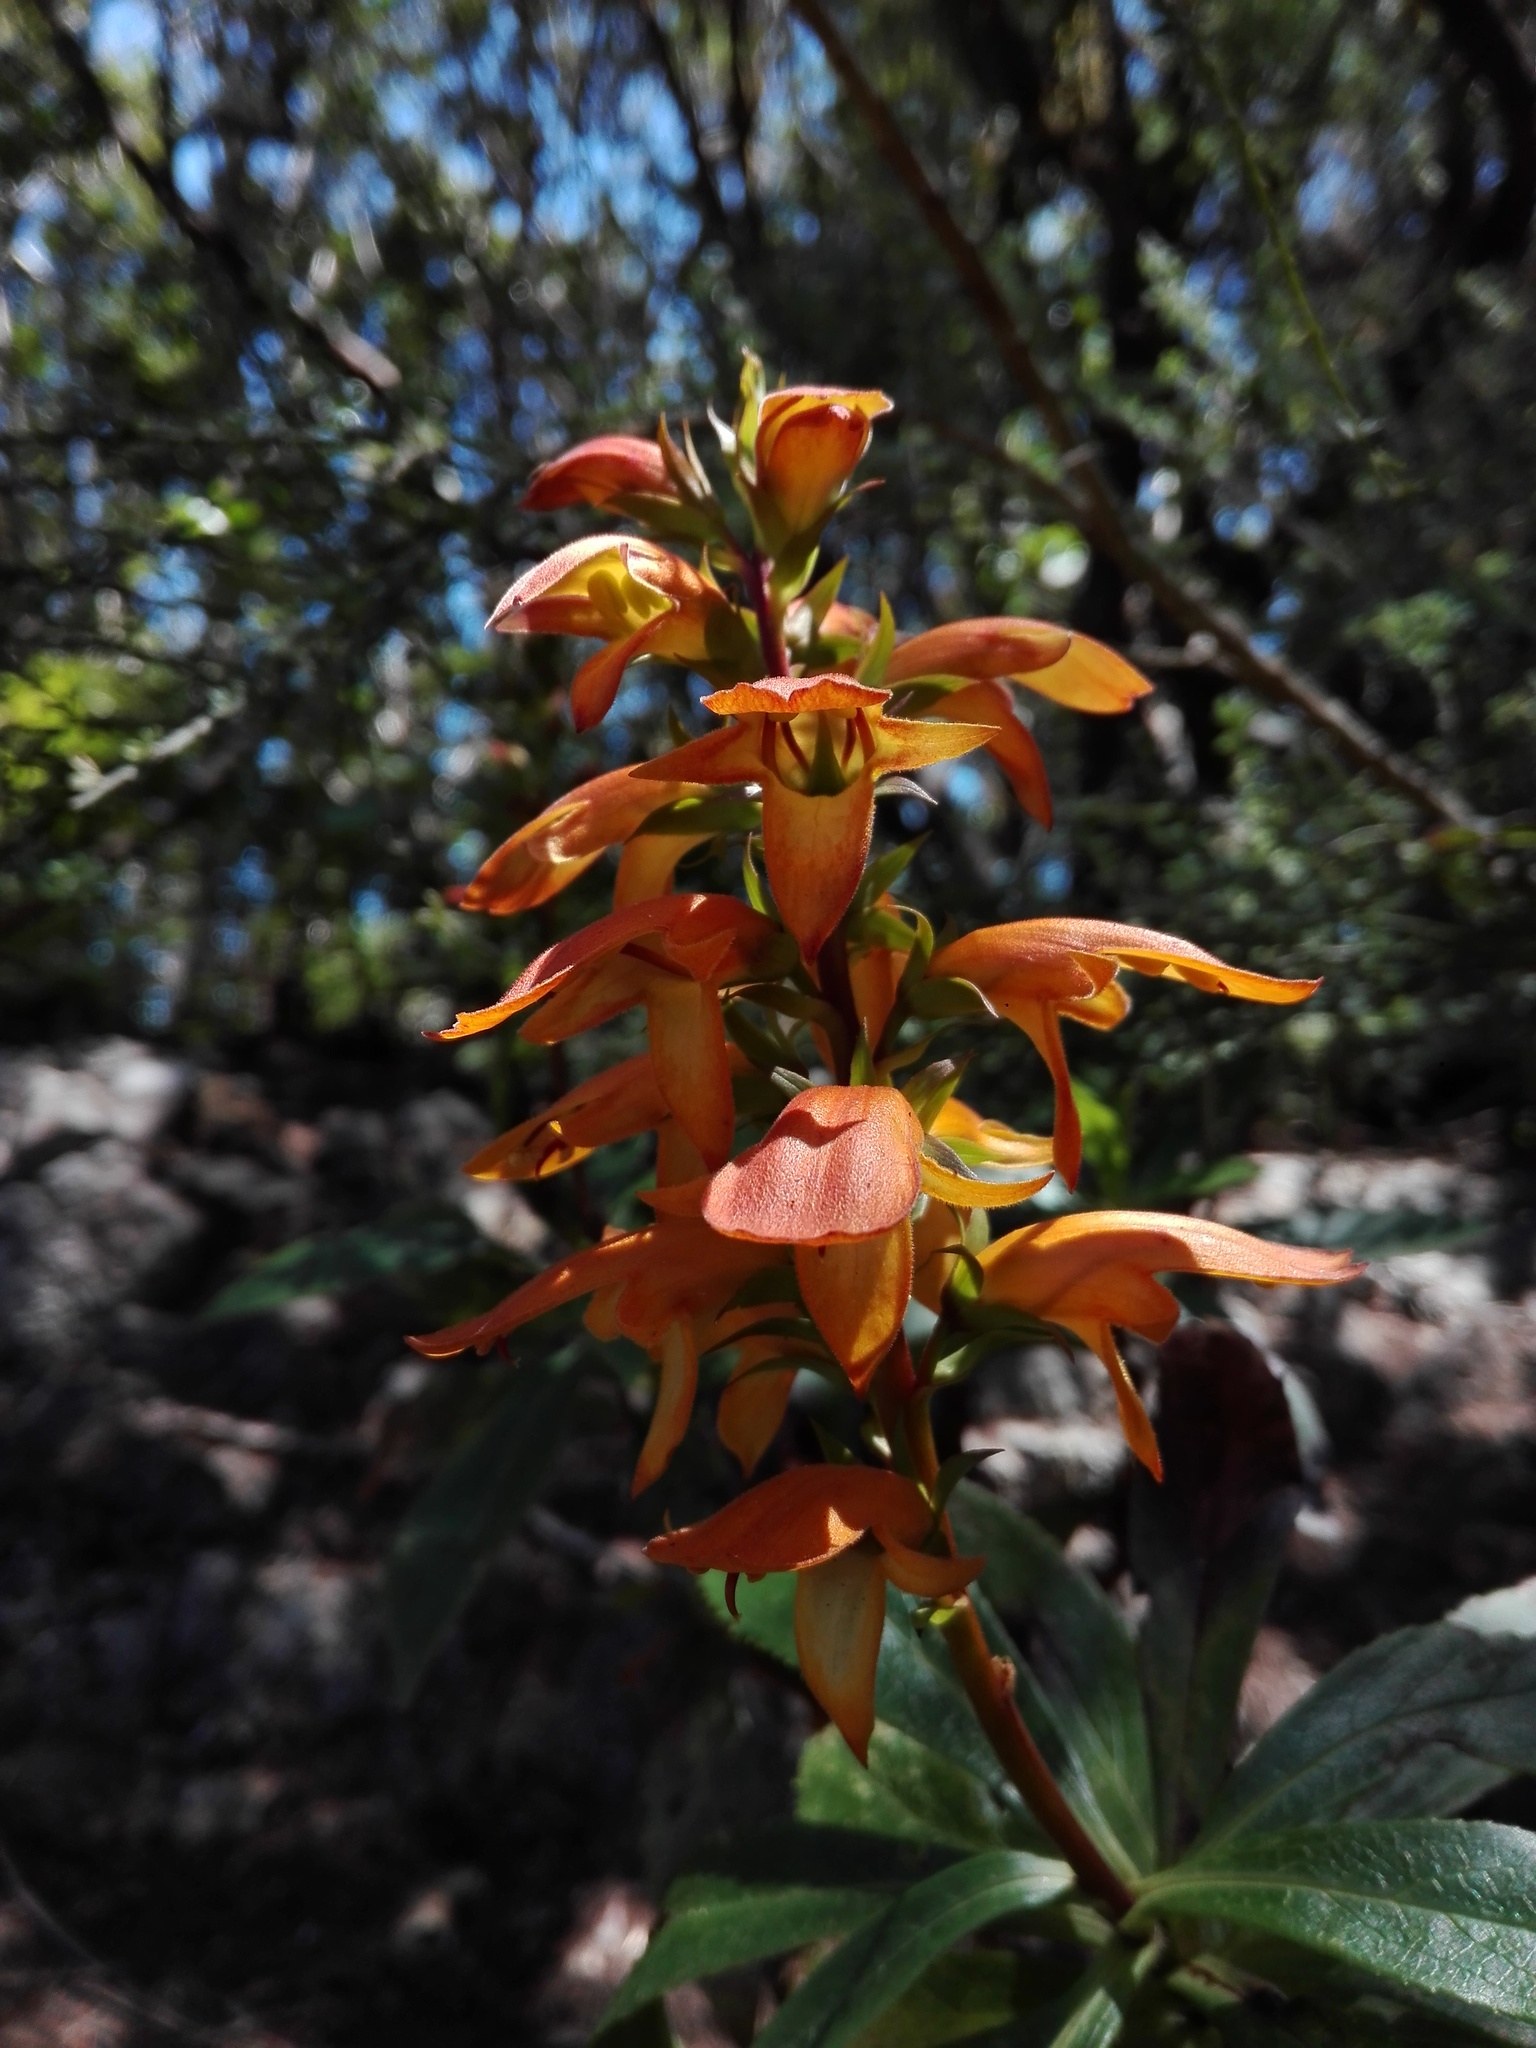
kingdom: Plantae
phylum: Tracheophyta
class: Magnoliopsida
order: Lamiales
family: Plantaginaceae
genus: Digitalis
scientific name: Digitalis canariensis
